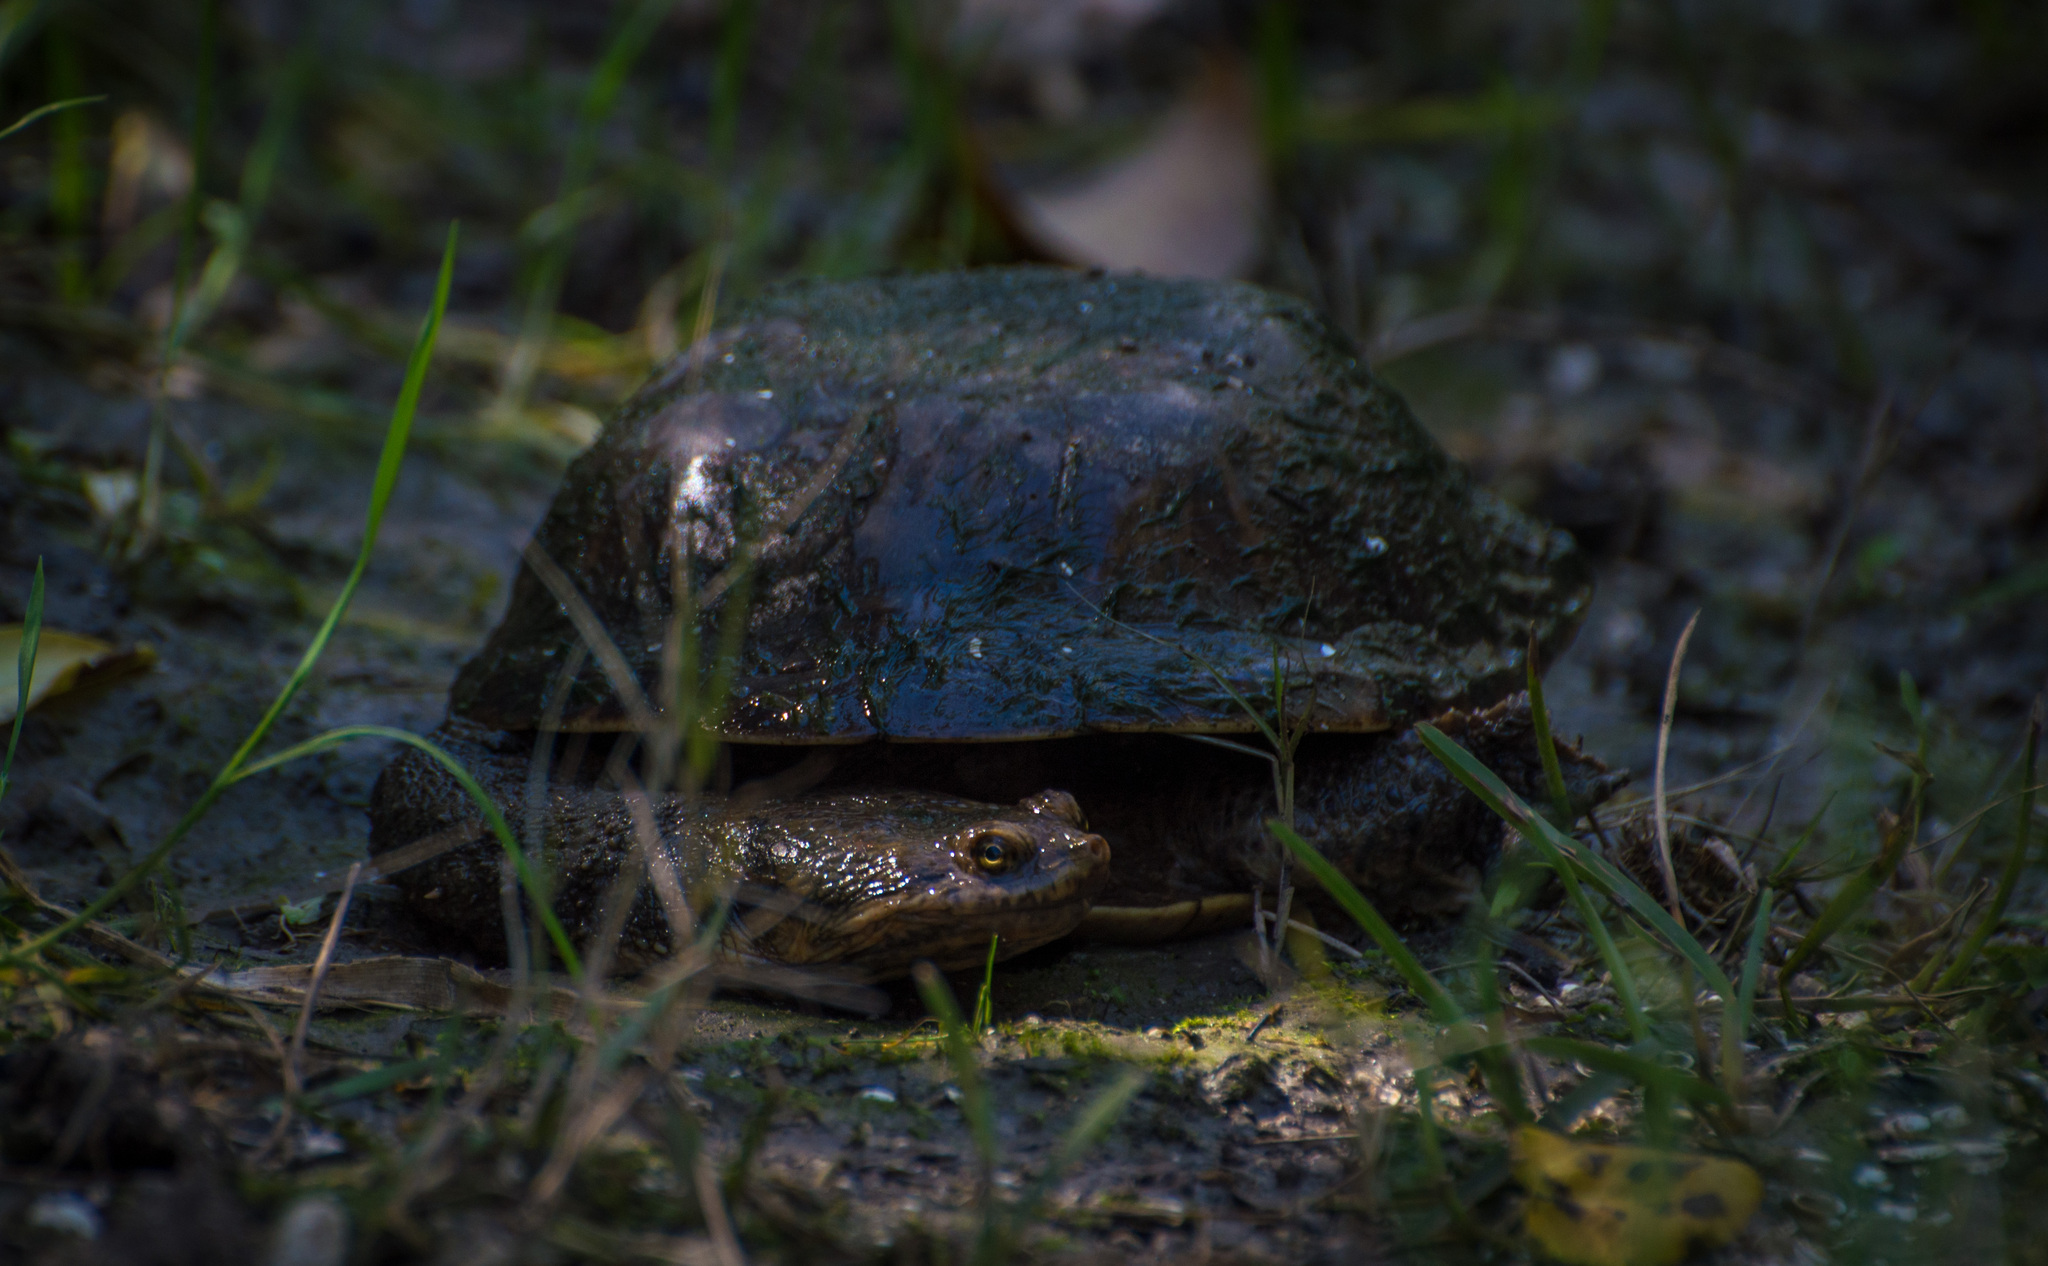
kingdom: Animalia
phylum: Chordata
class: Testudines
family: Chelidae
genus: Hydromedusa
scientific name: Hydromedusa tectifera
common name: Argentine snake-necked turtle
